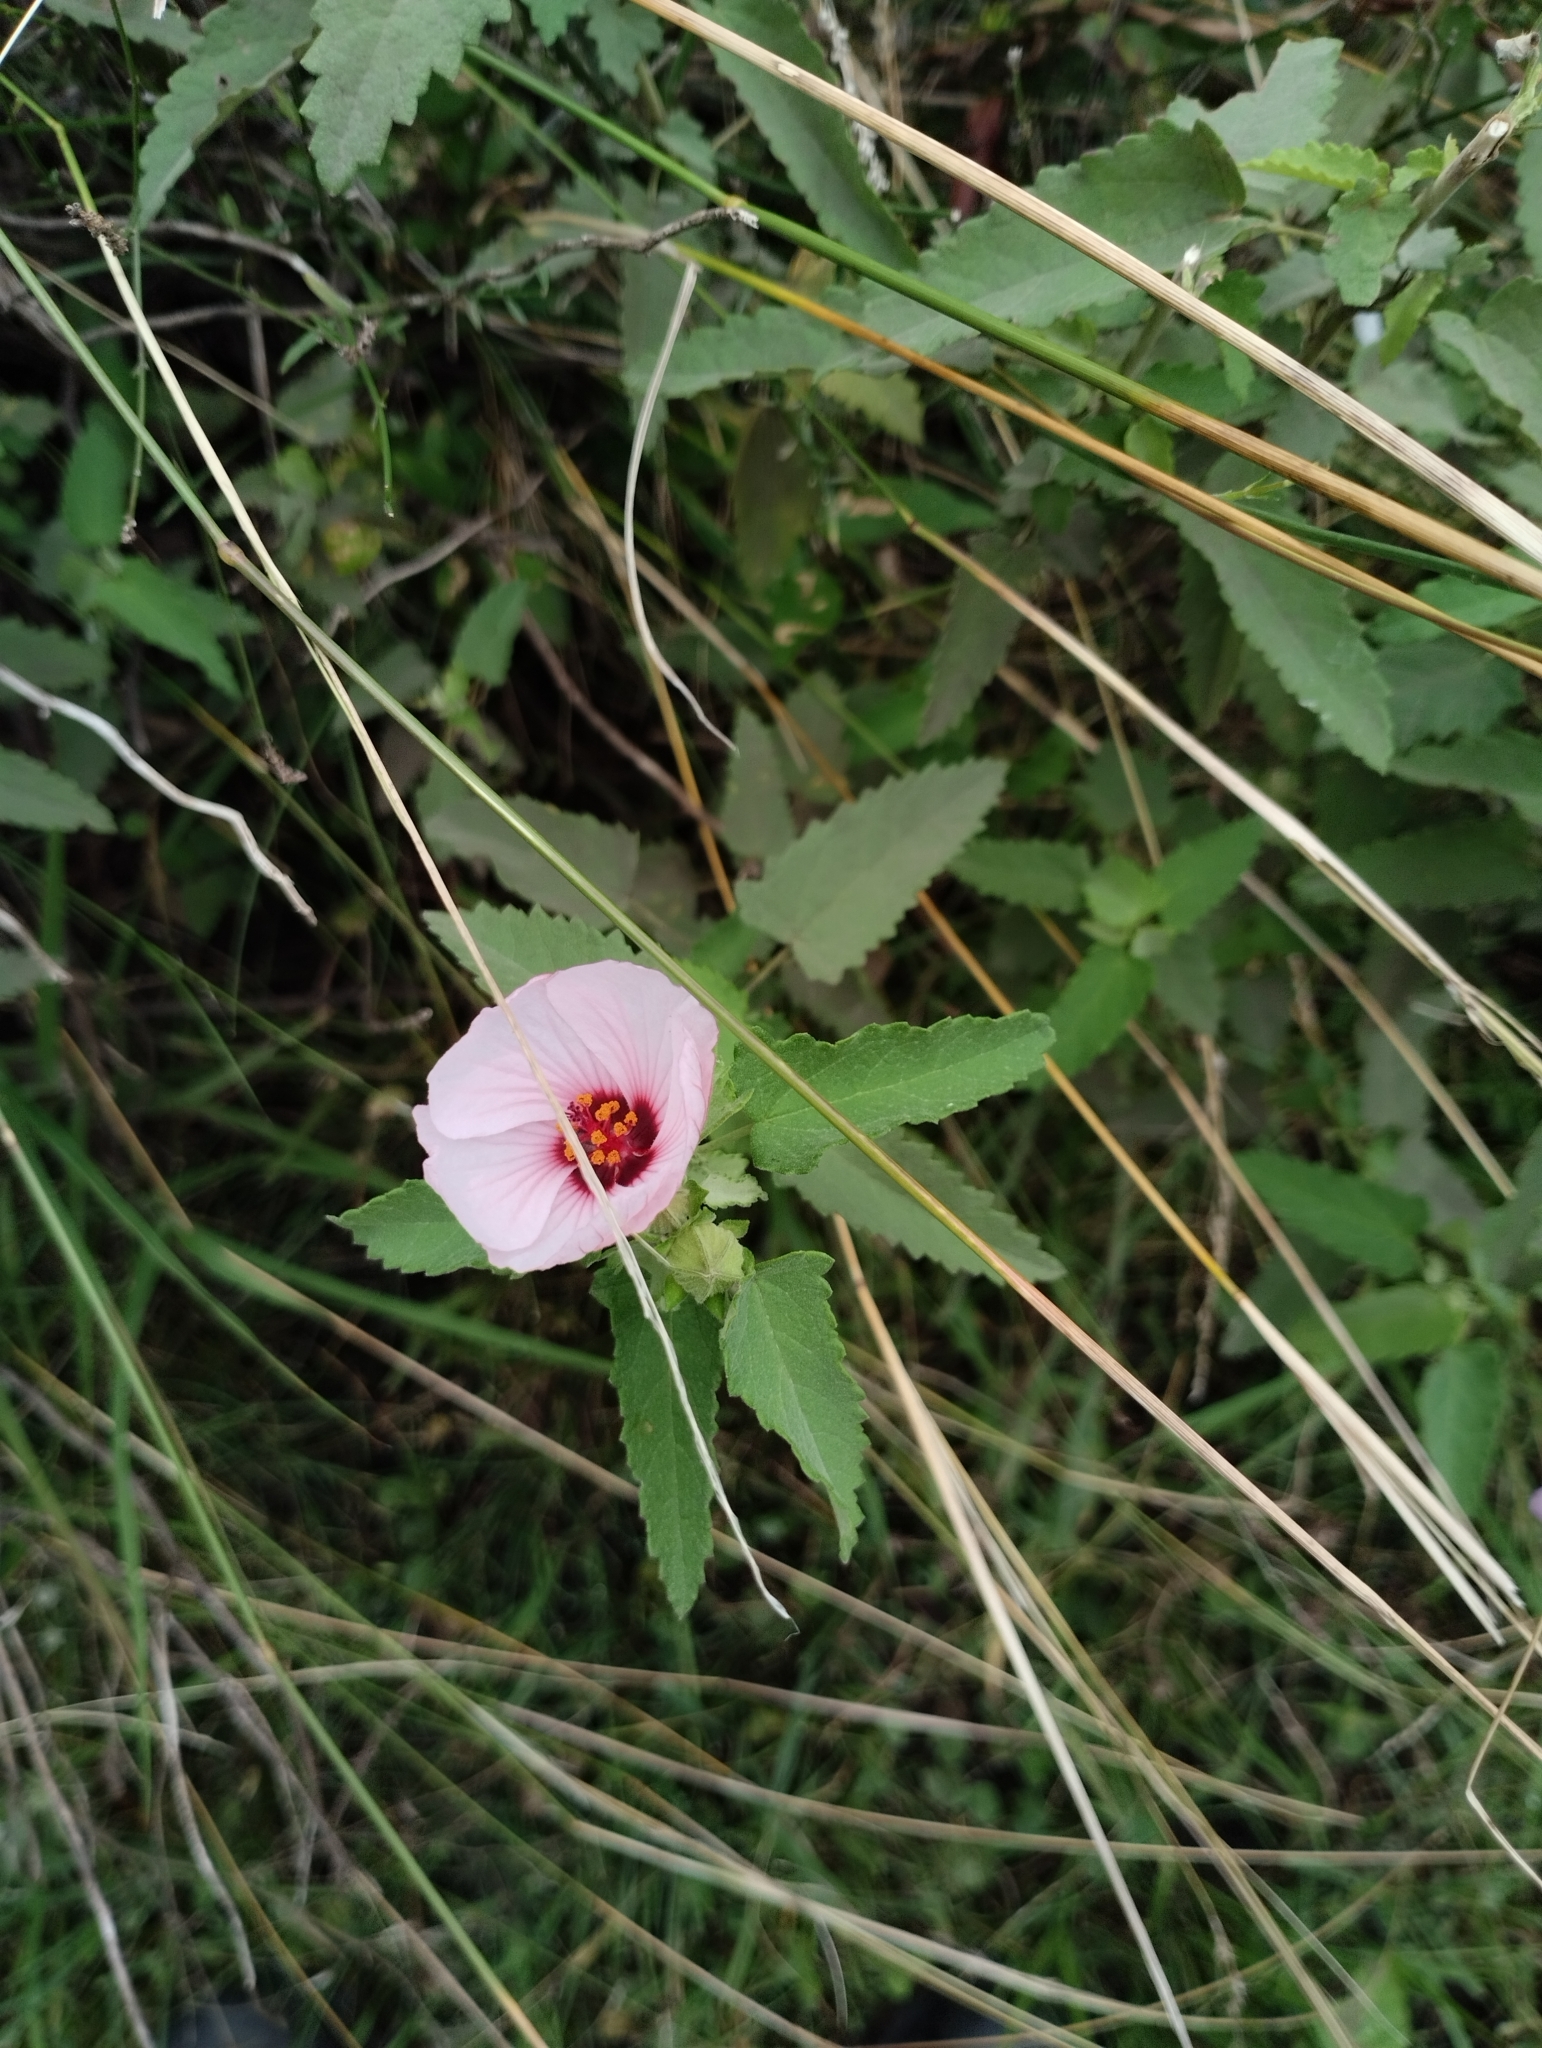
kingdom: Plantae
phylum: Tracheophyta
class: Magnoliopsida
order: Malvales
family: Malvaceae
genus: Pavonia
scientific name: Pavonia hastata
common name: Spearleaf swampmallow
